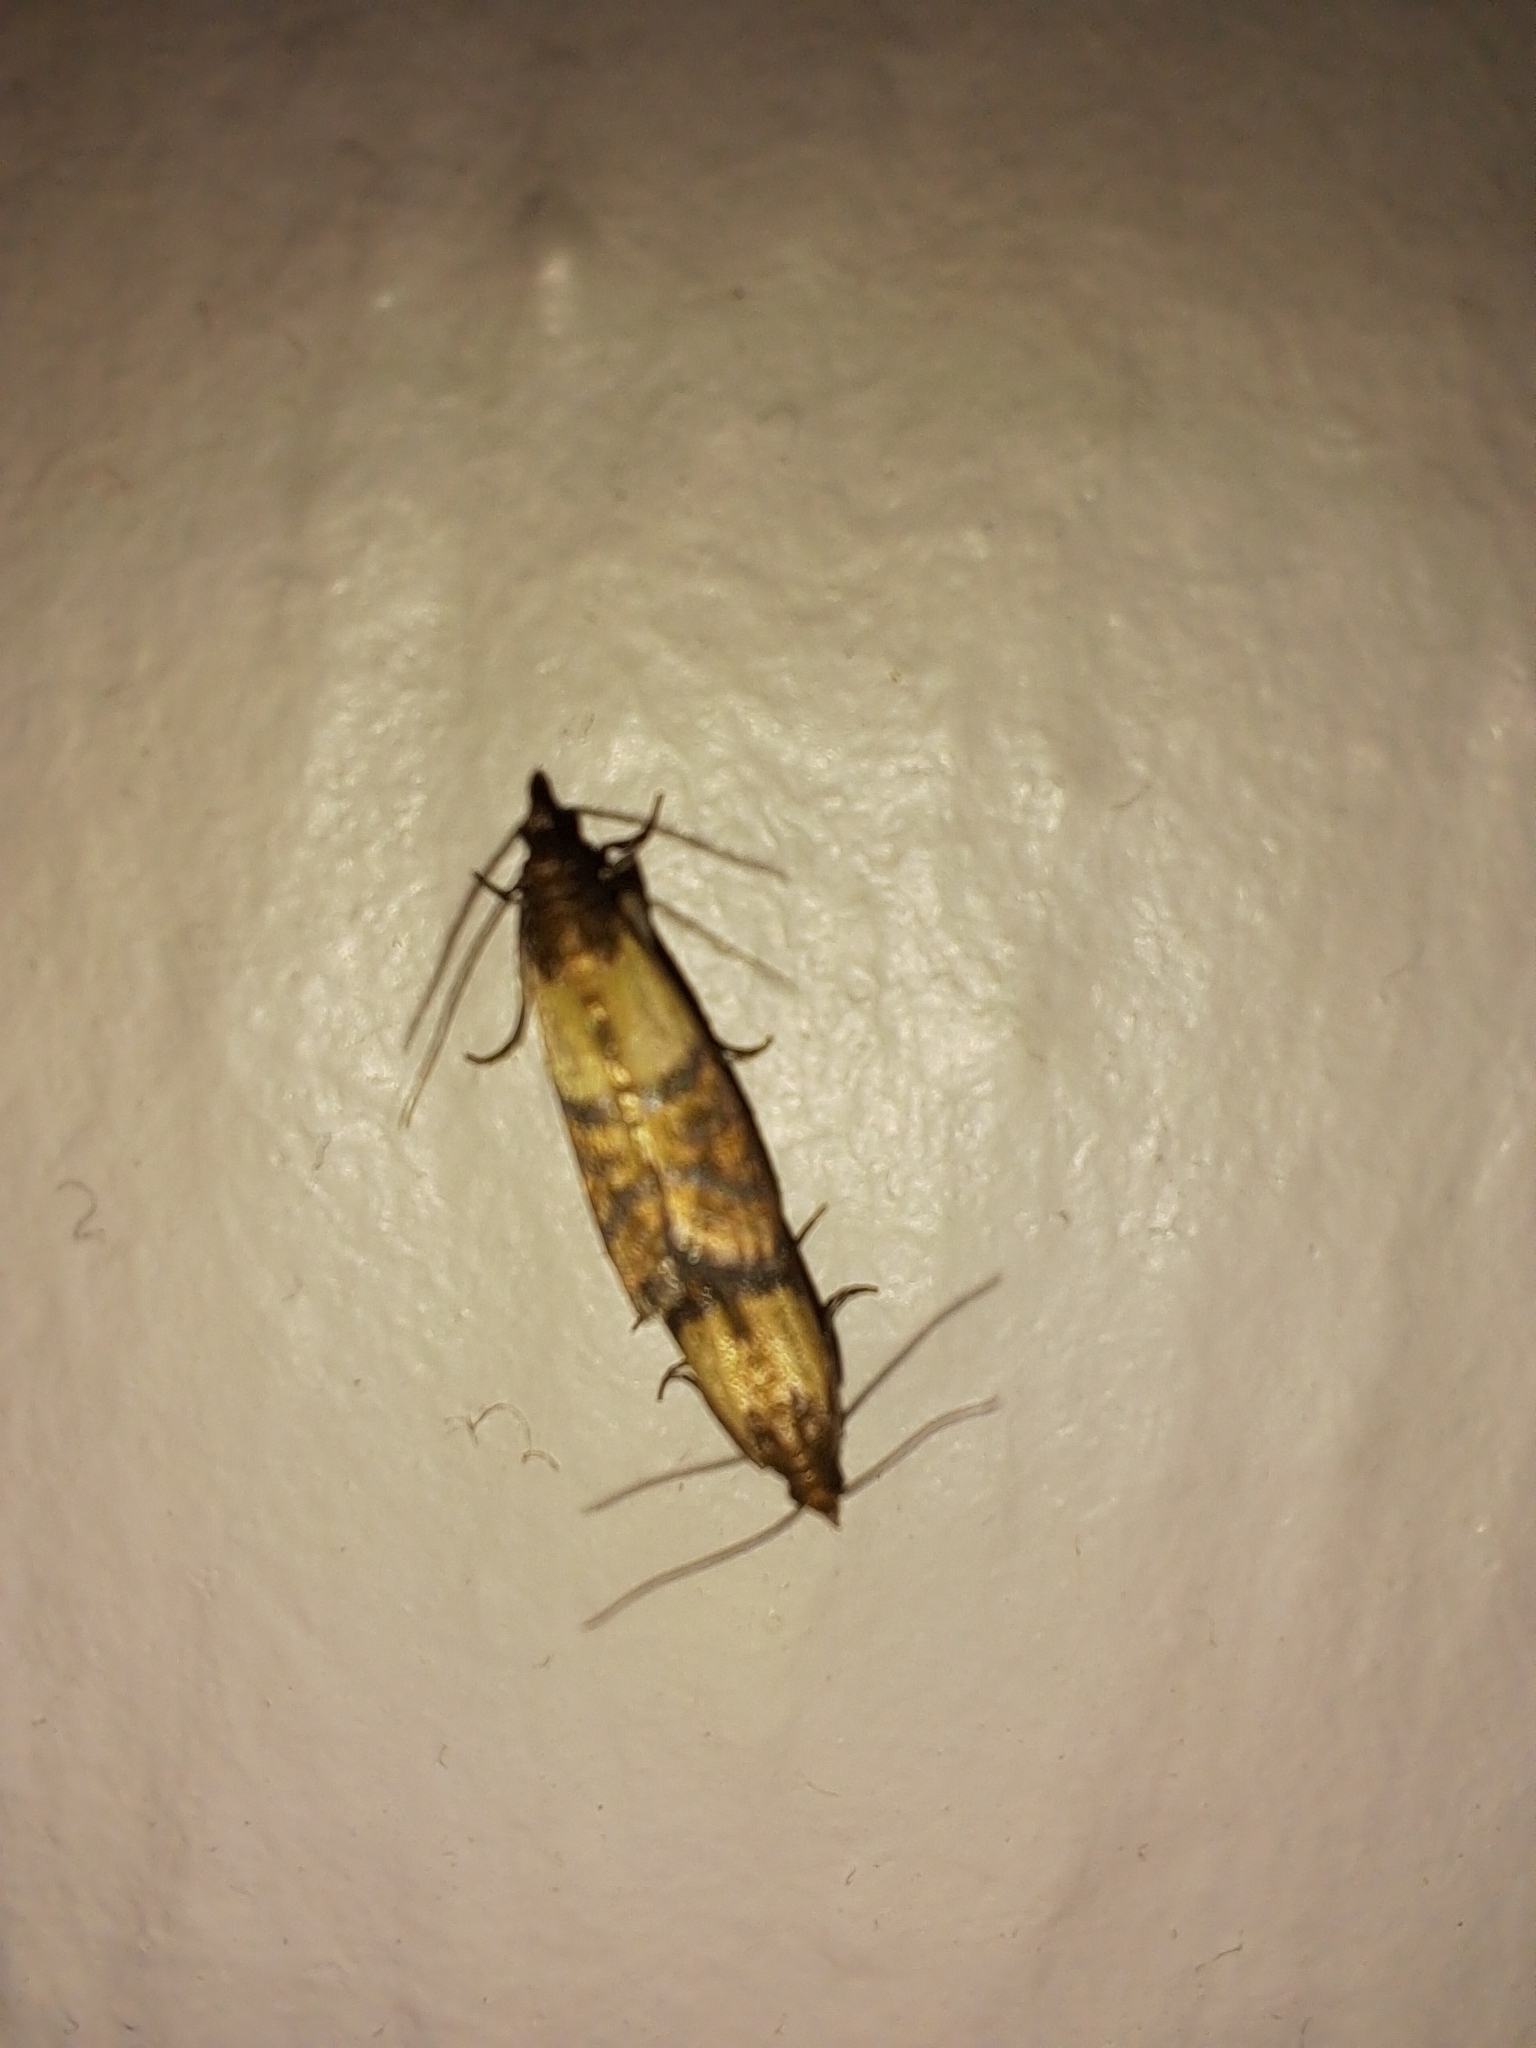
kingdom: Animalia
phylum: Arthropoda
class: Insecta
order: Lepidoptera
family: Pyralidae
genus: Plodia
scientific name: Plodia interpunctella
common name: Indian meal moth
